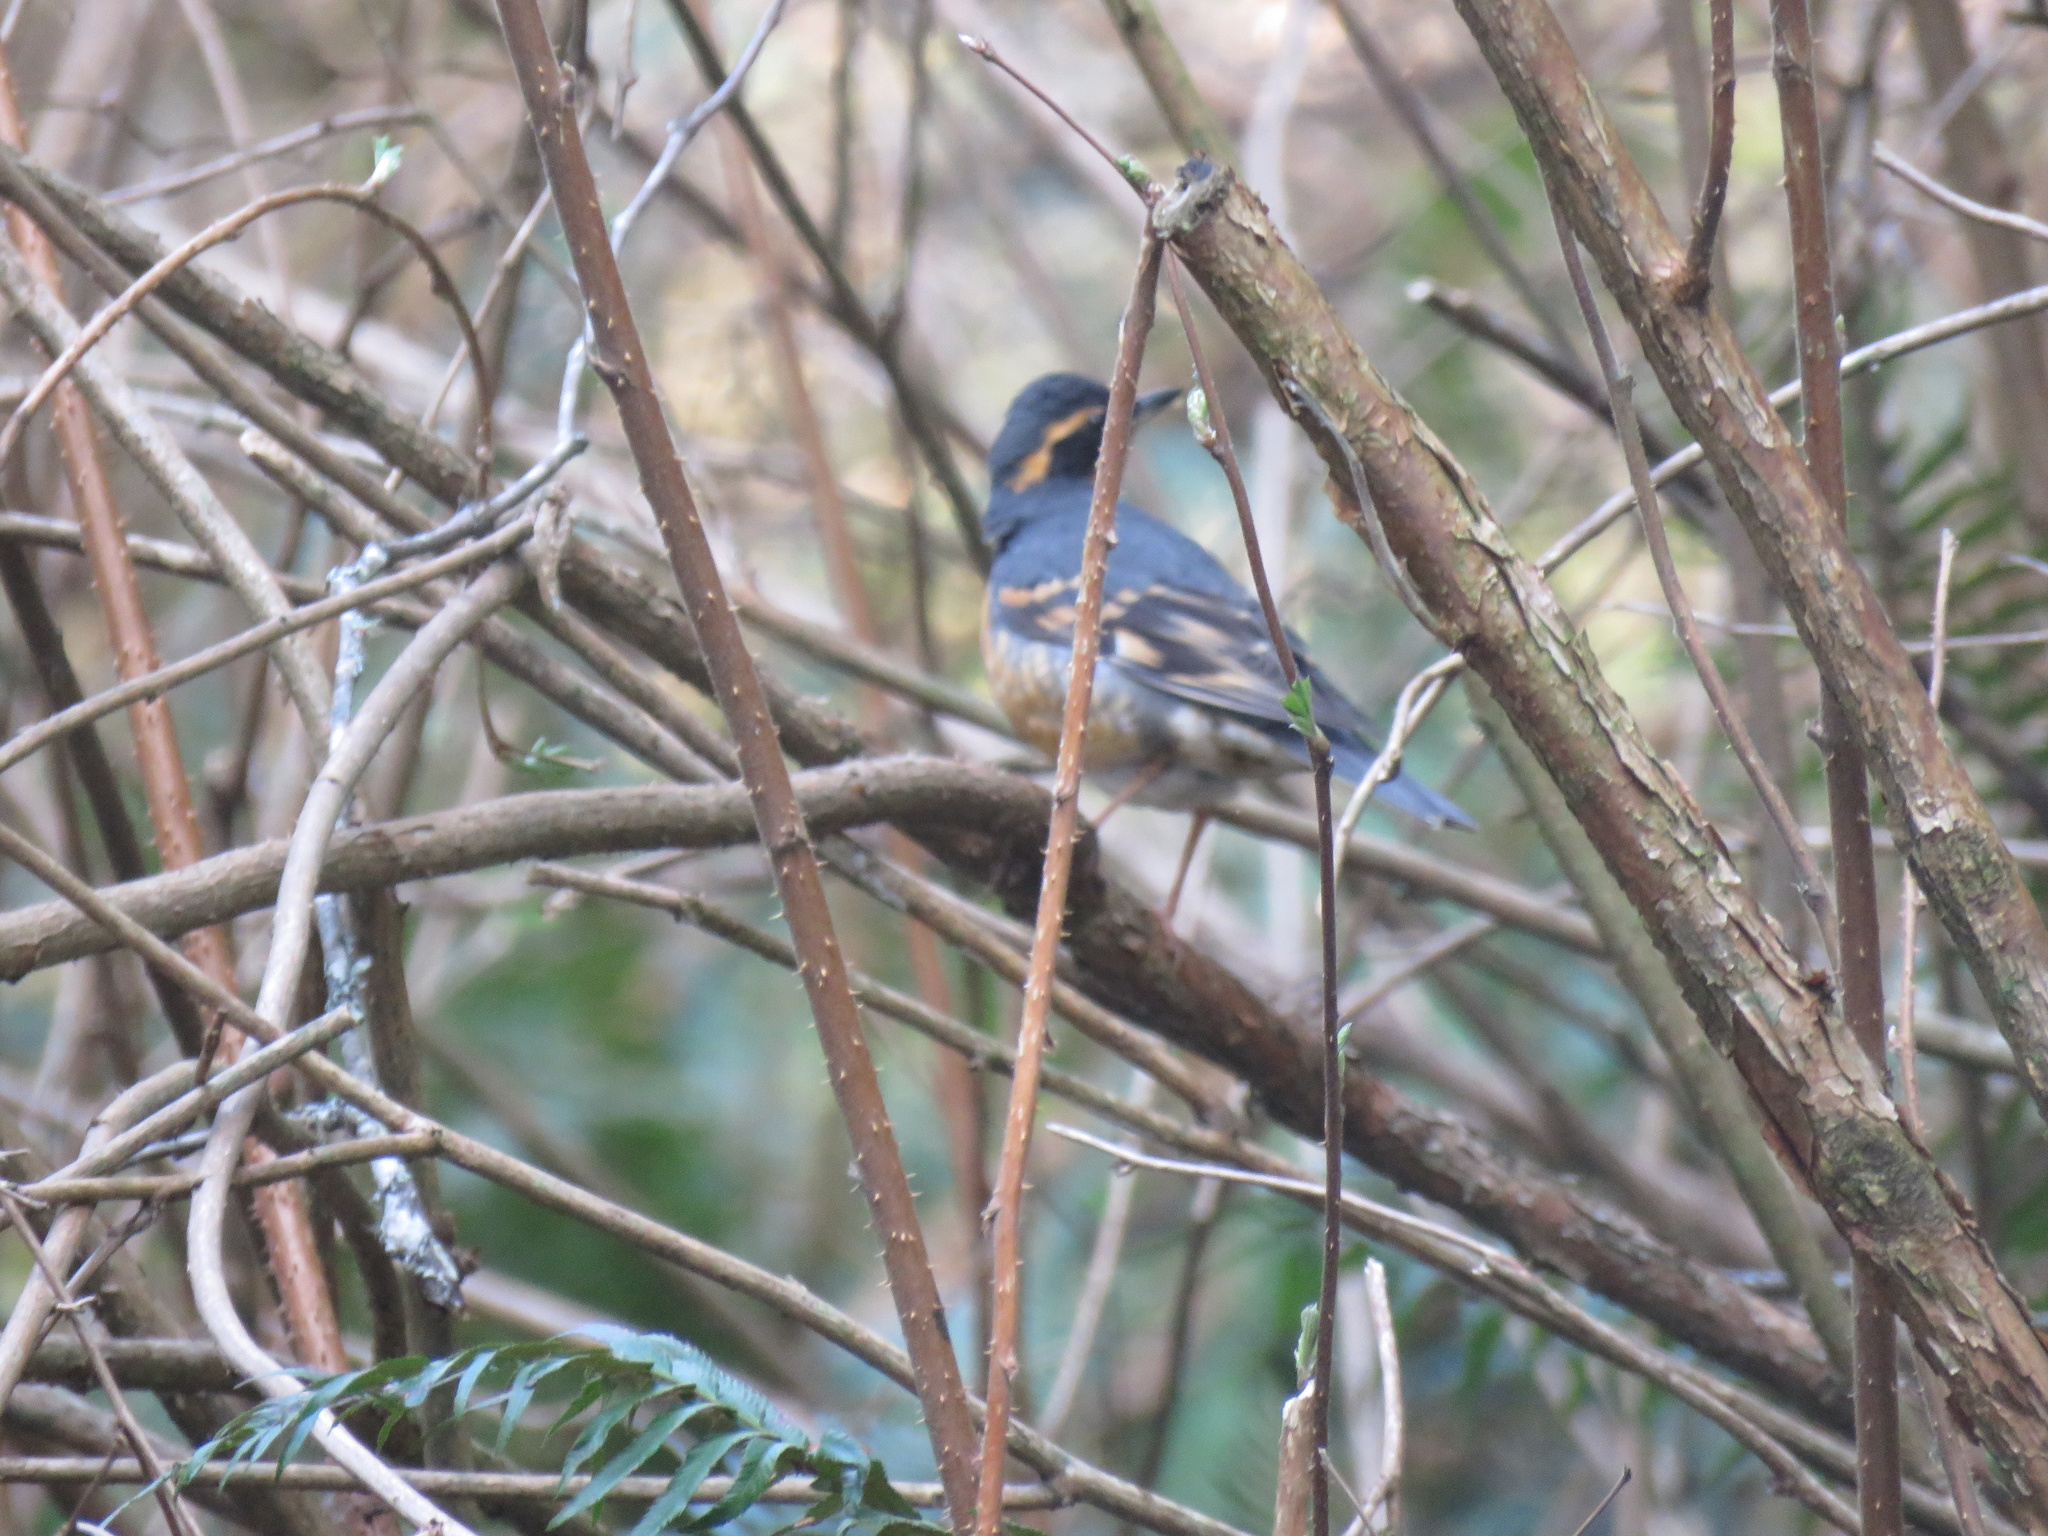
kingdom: Animalia
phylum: Chordata
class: Aves
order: Passeriformes
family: Turdidae
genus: Ixoreus
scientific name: Ixoreus naevius
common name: Varied thrush
